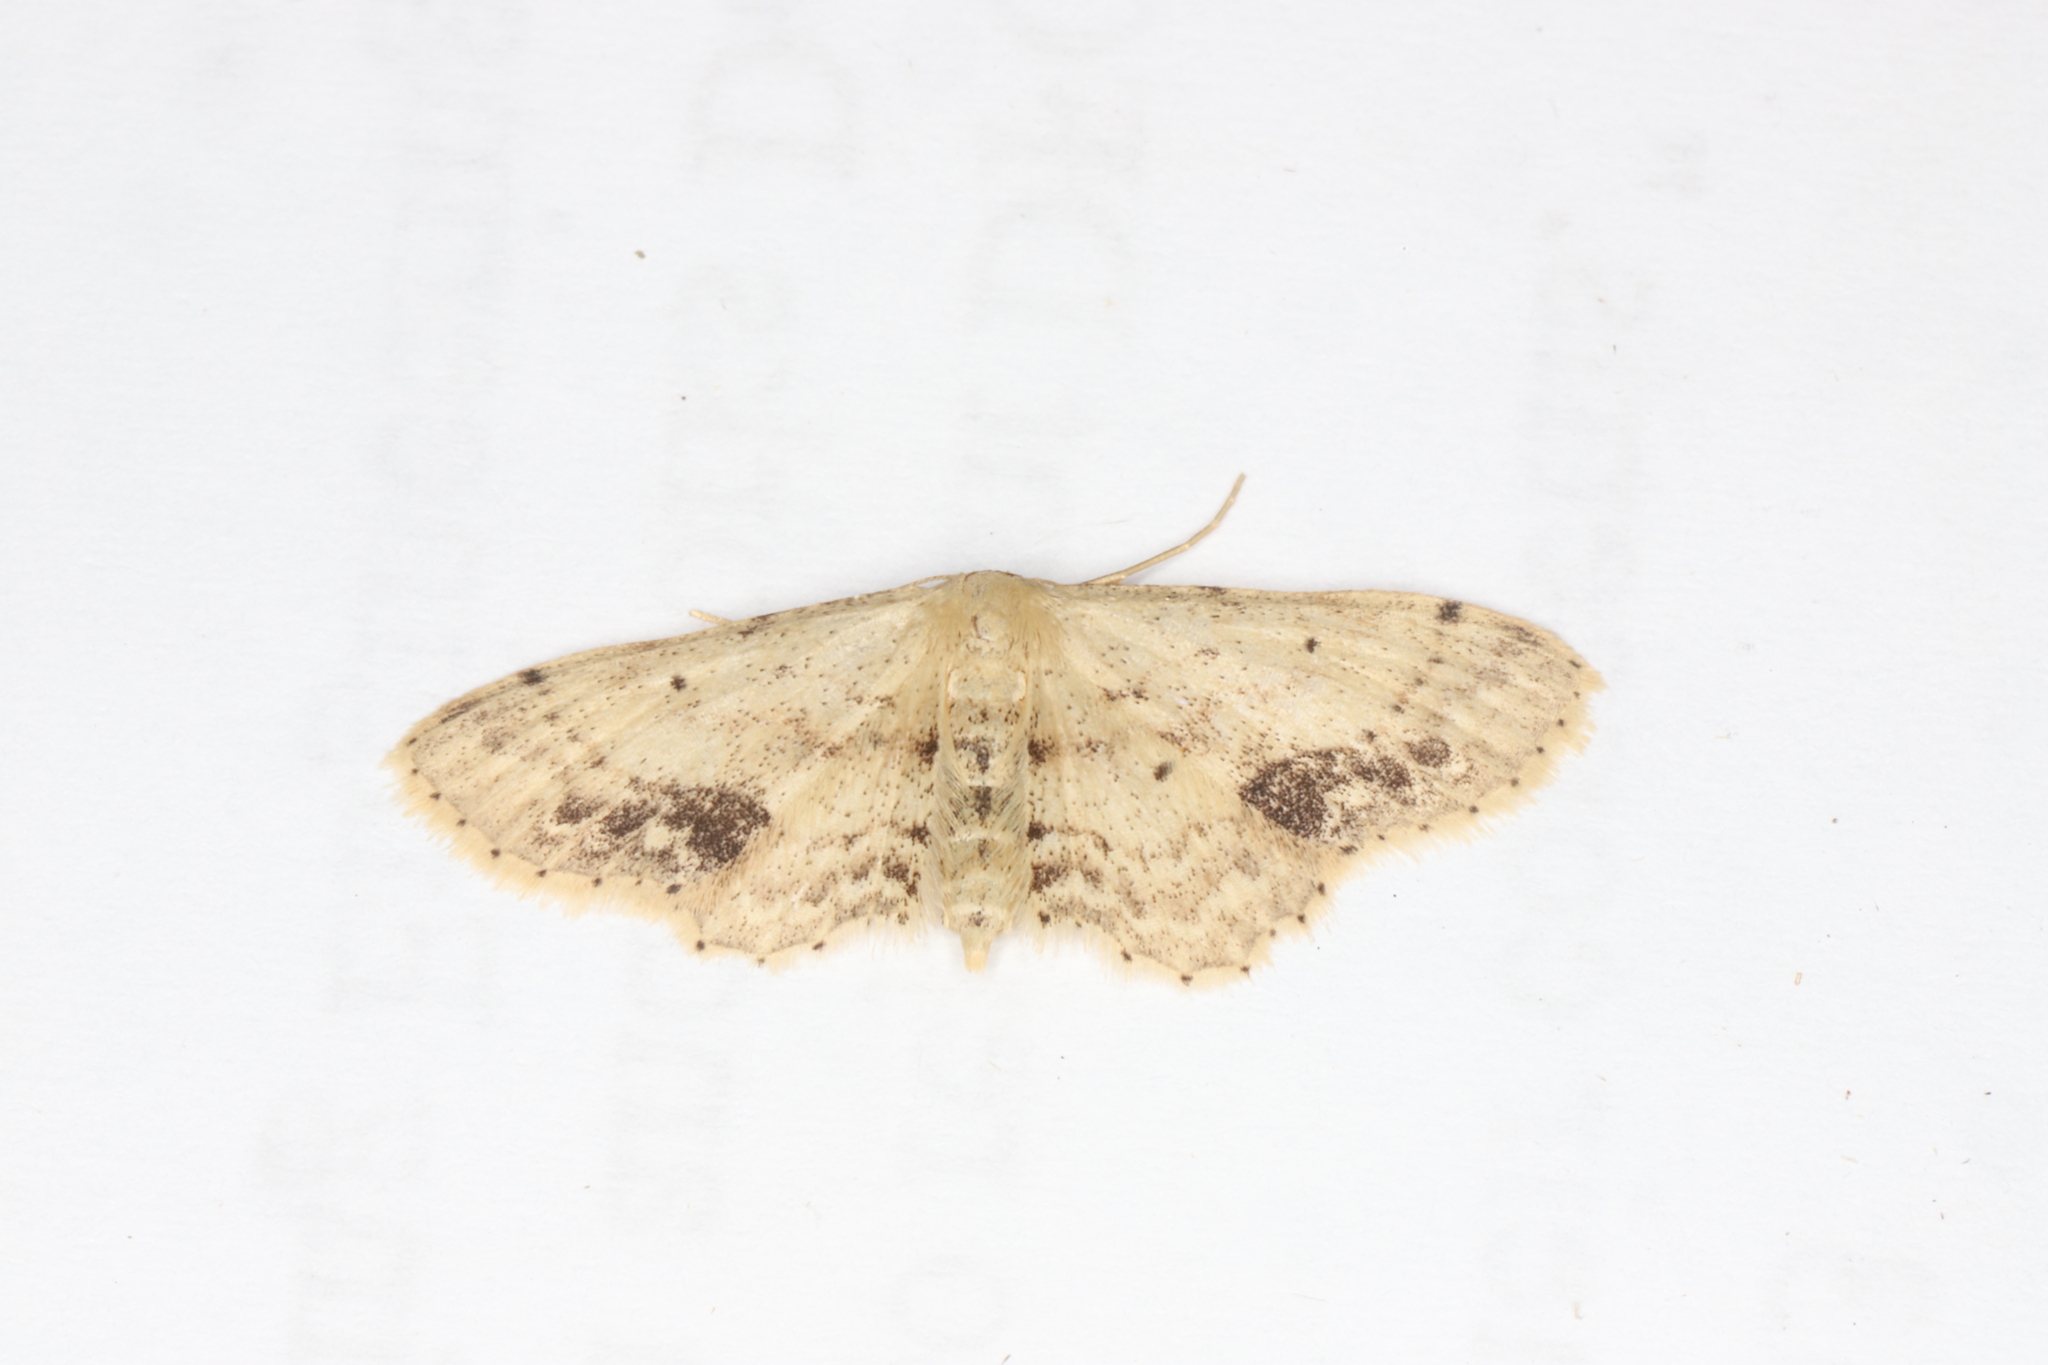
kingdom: Animalia
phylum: Arthropoda
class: Insecta
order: Lepidoptera
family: Geometridae
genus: Idaea
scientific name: Idaea dimidiata
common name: Single-dotted wave
